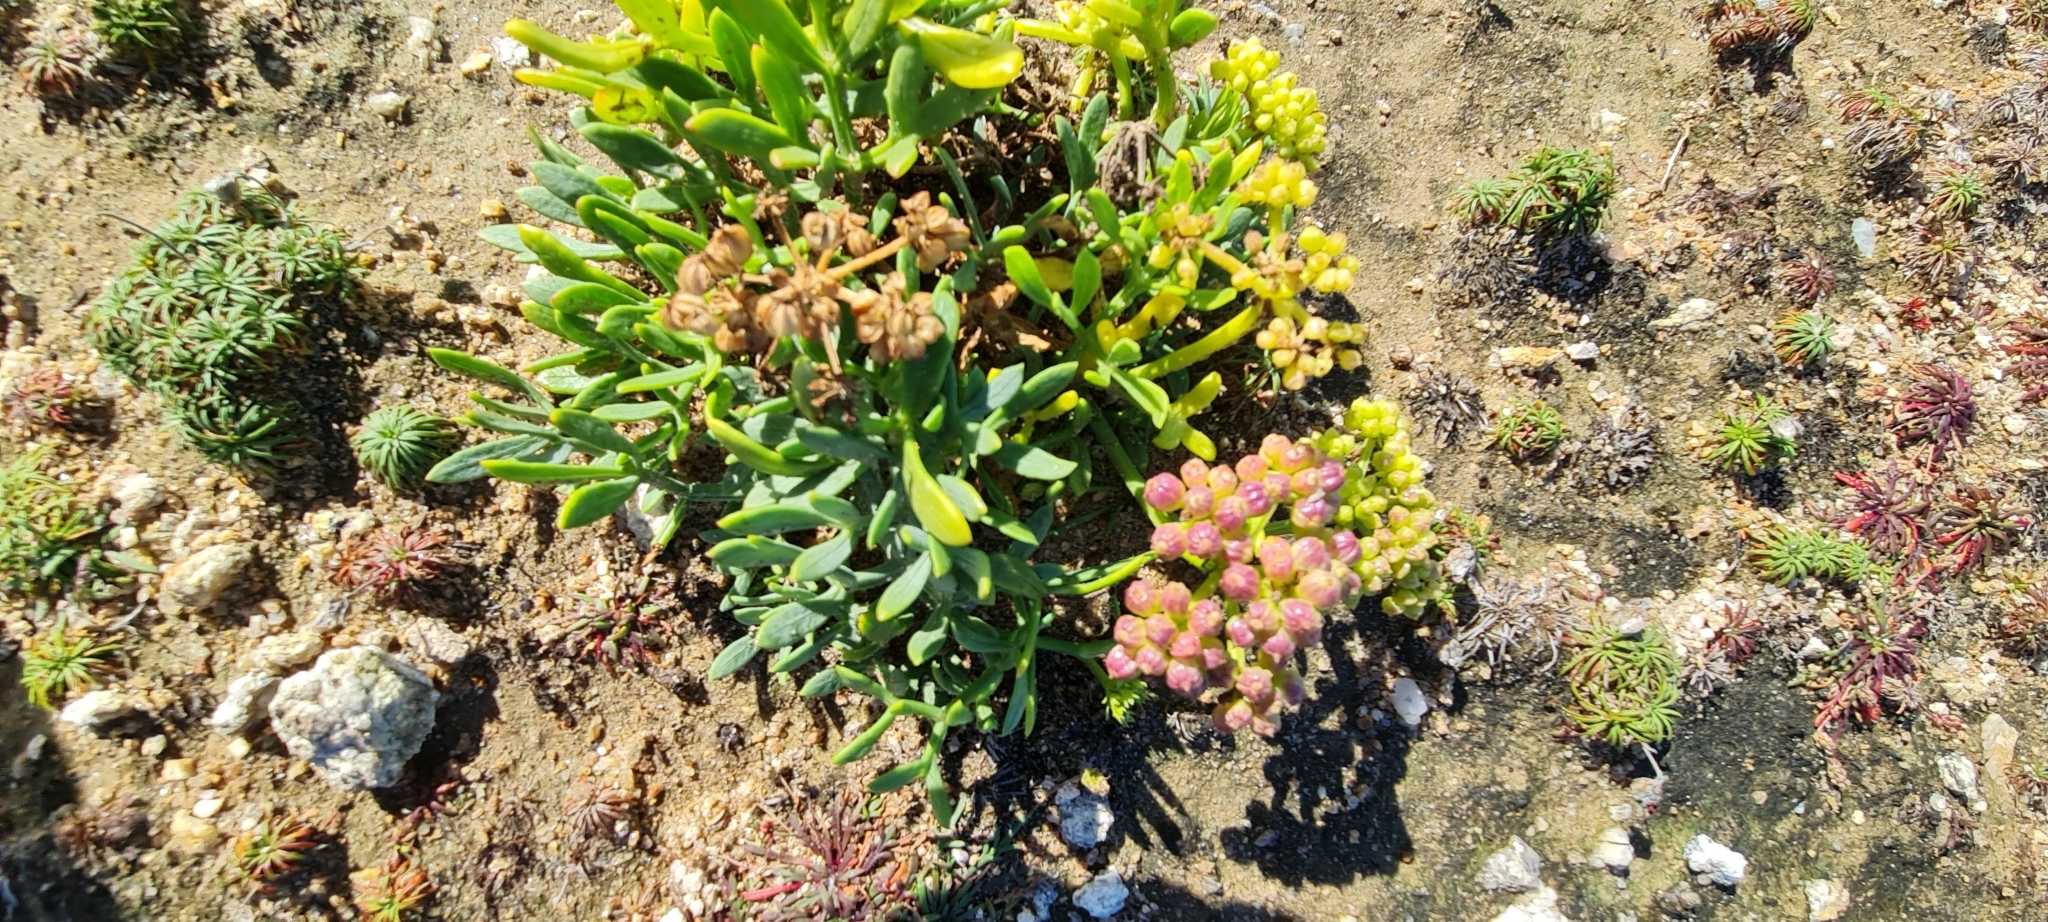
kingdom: Plantae
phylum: Tracheophyta
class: Magnoliopsida
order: Apiales
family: Apiaceae
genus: Crithmum
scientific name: Crithmum maritimum
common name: Rock samphire
